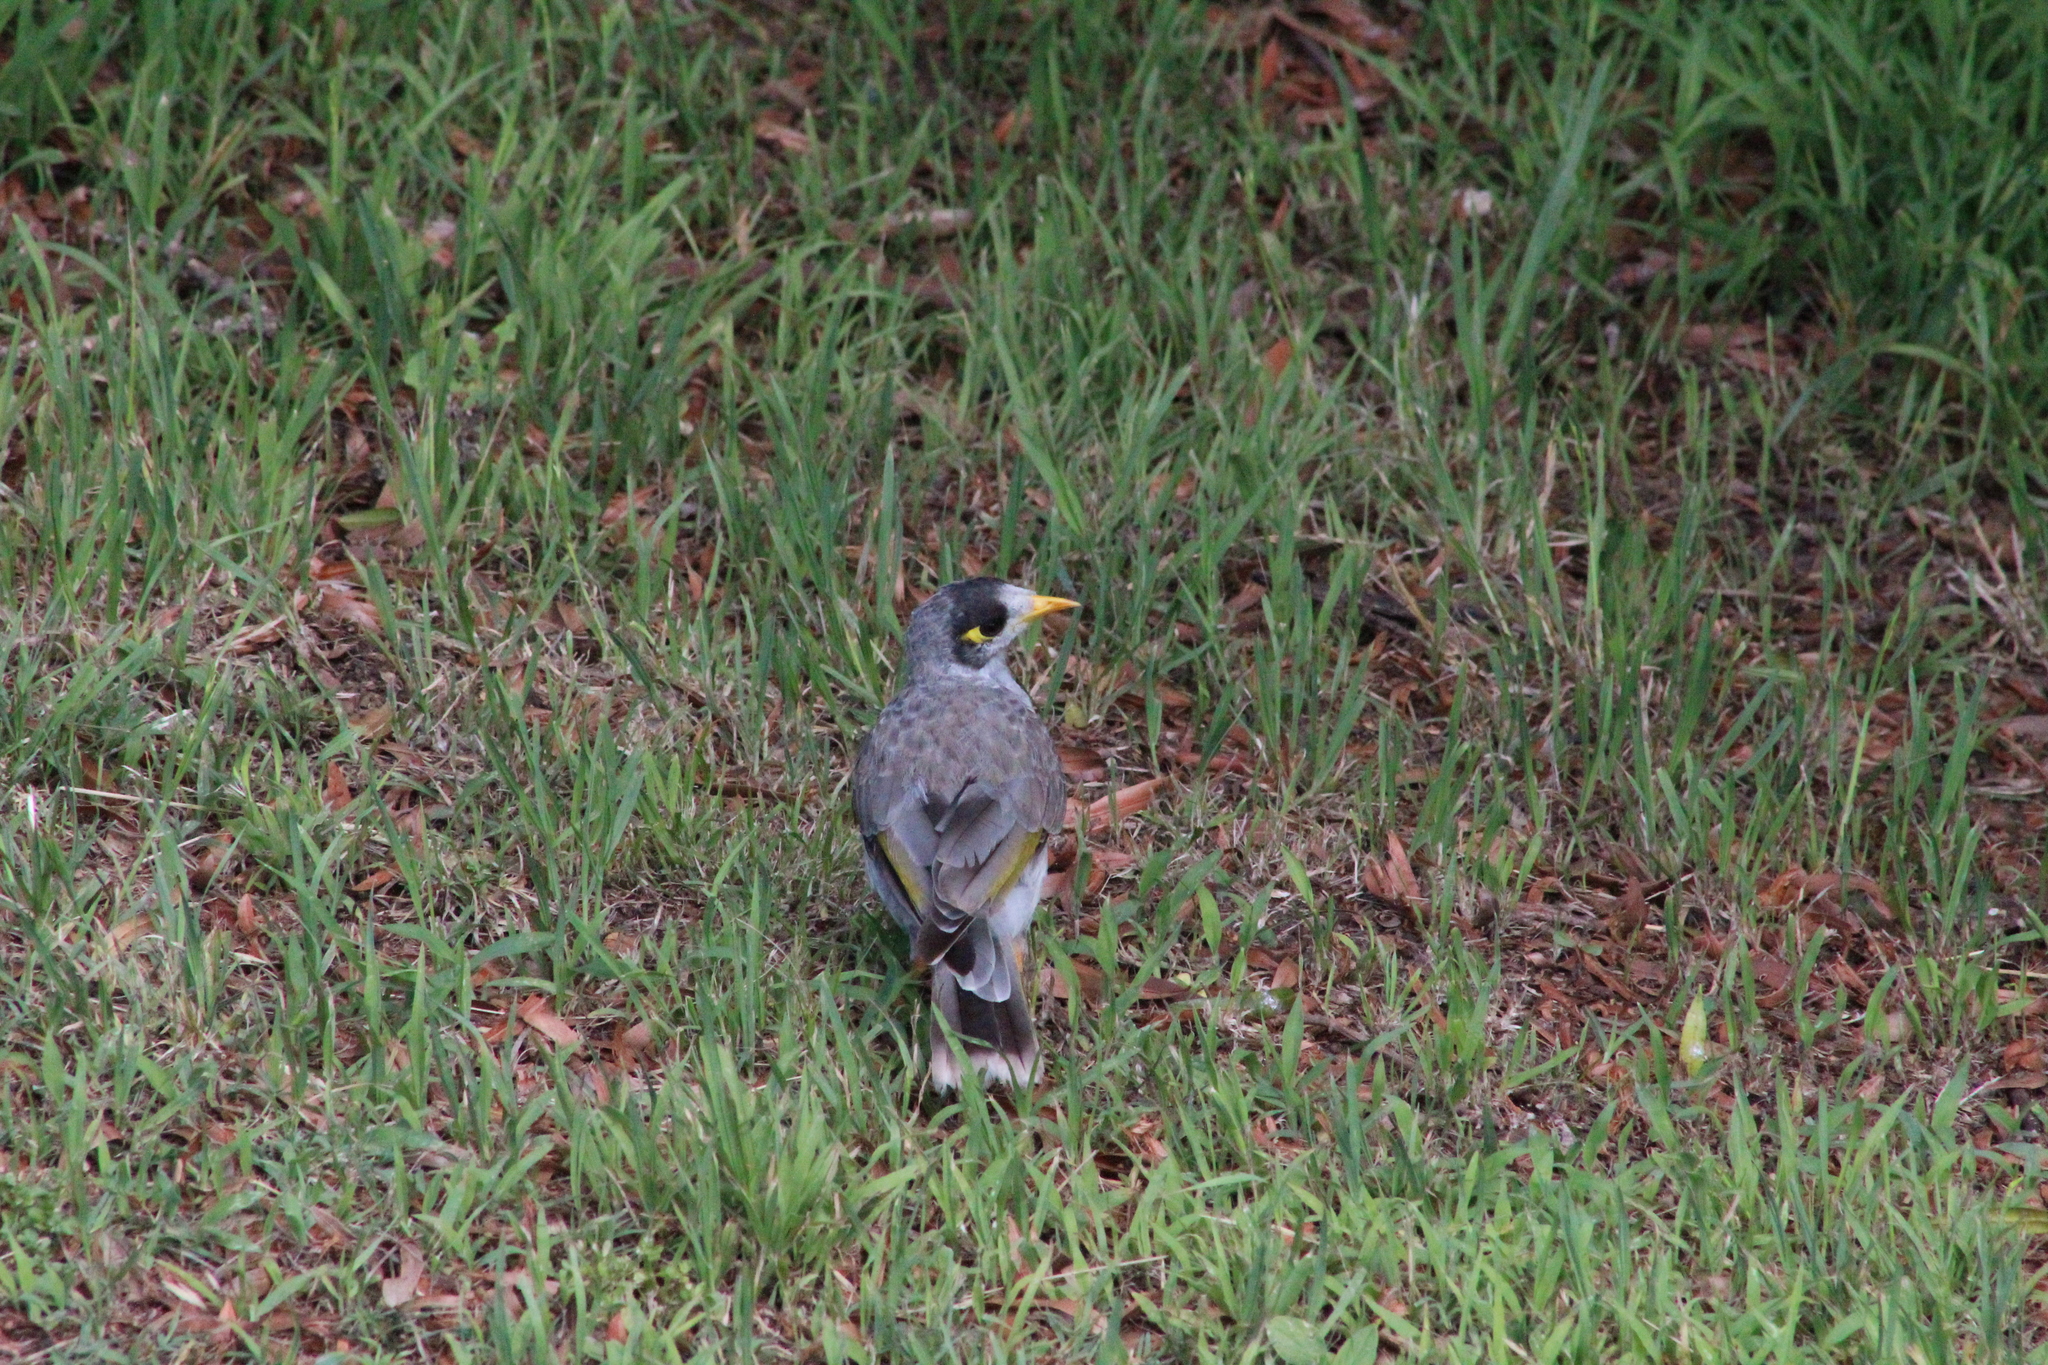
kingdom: Animalia
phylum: Chordata
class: Aves
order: Passeriformes
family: Meliphagidae
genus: Manorina
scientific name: Manorina melanocephala
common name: Noisy miner
